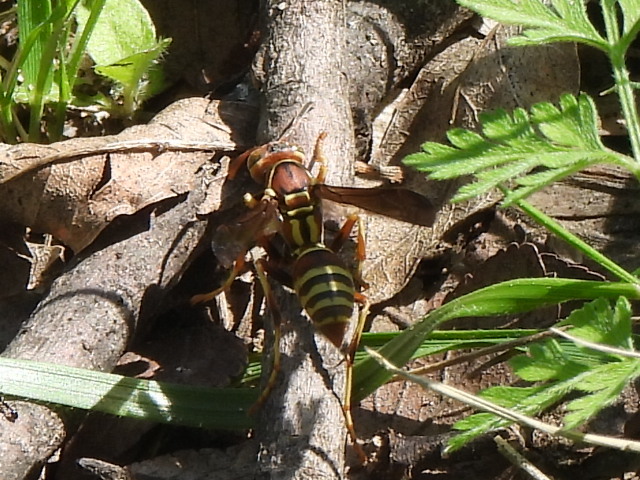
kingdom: Animalia
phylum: Arthropoda
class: Insecta
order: Hymenoptera
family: Eumenidae
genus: Polistes
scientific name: Polistes dorsalis
